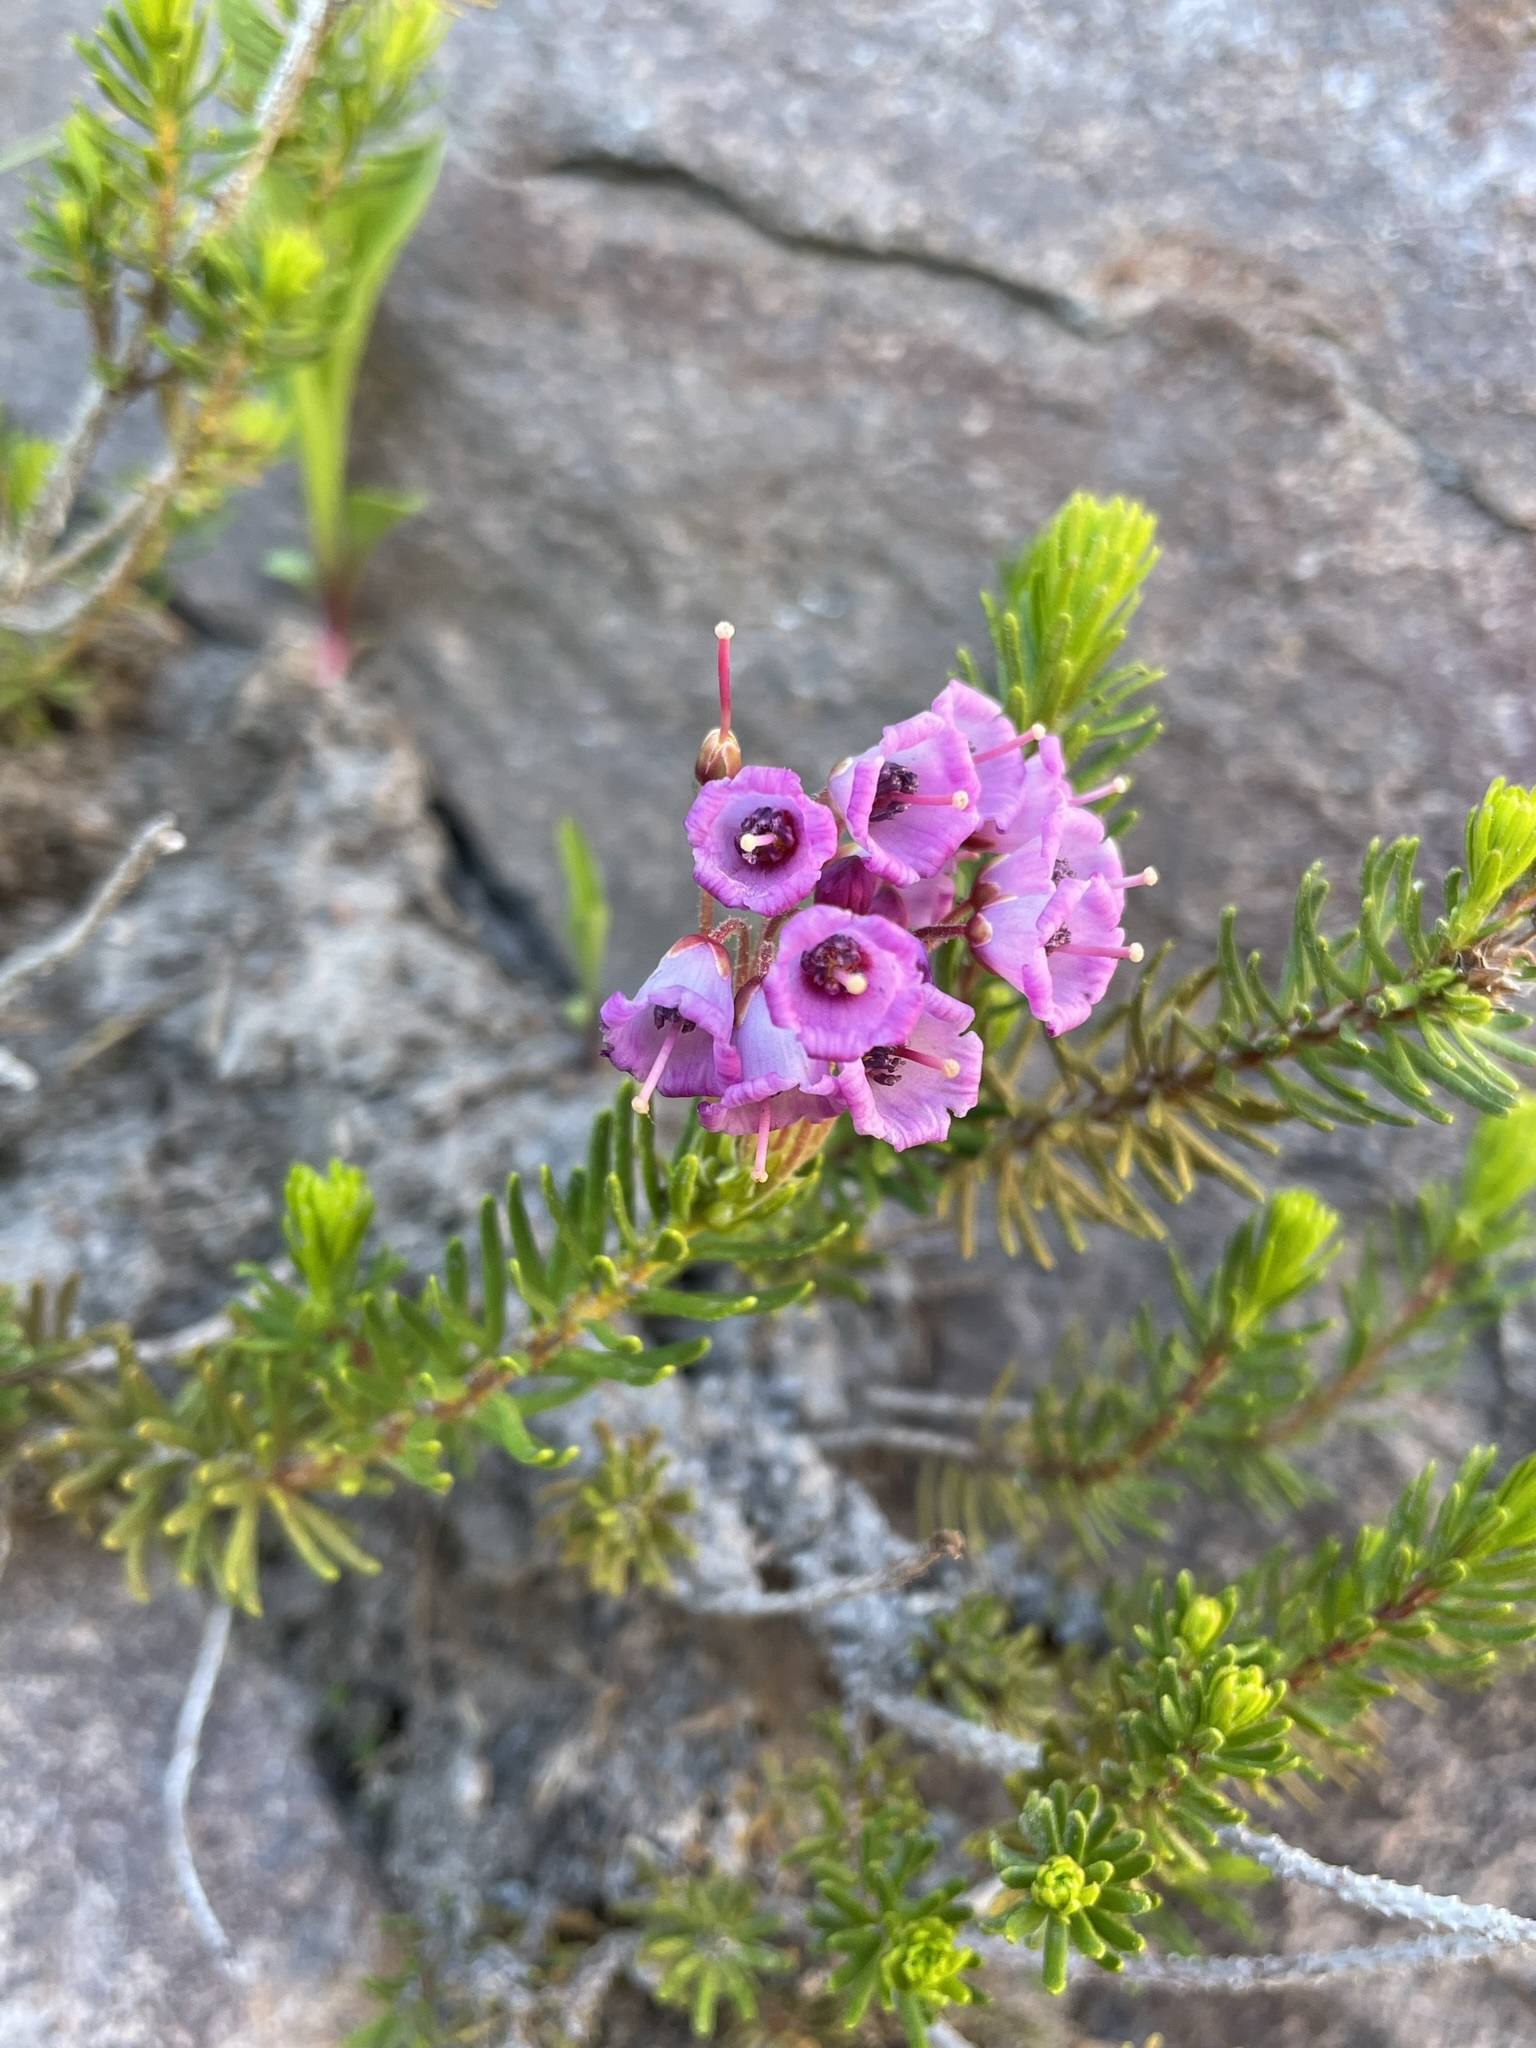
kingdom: Plantae
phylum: Tracheophyta
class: Magnoliopsida
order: Ericales
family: Ericaceae
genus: Phyllodoce
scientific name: Phyllodoce empetriformis
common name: Pink mountain heather
